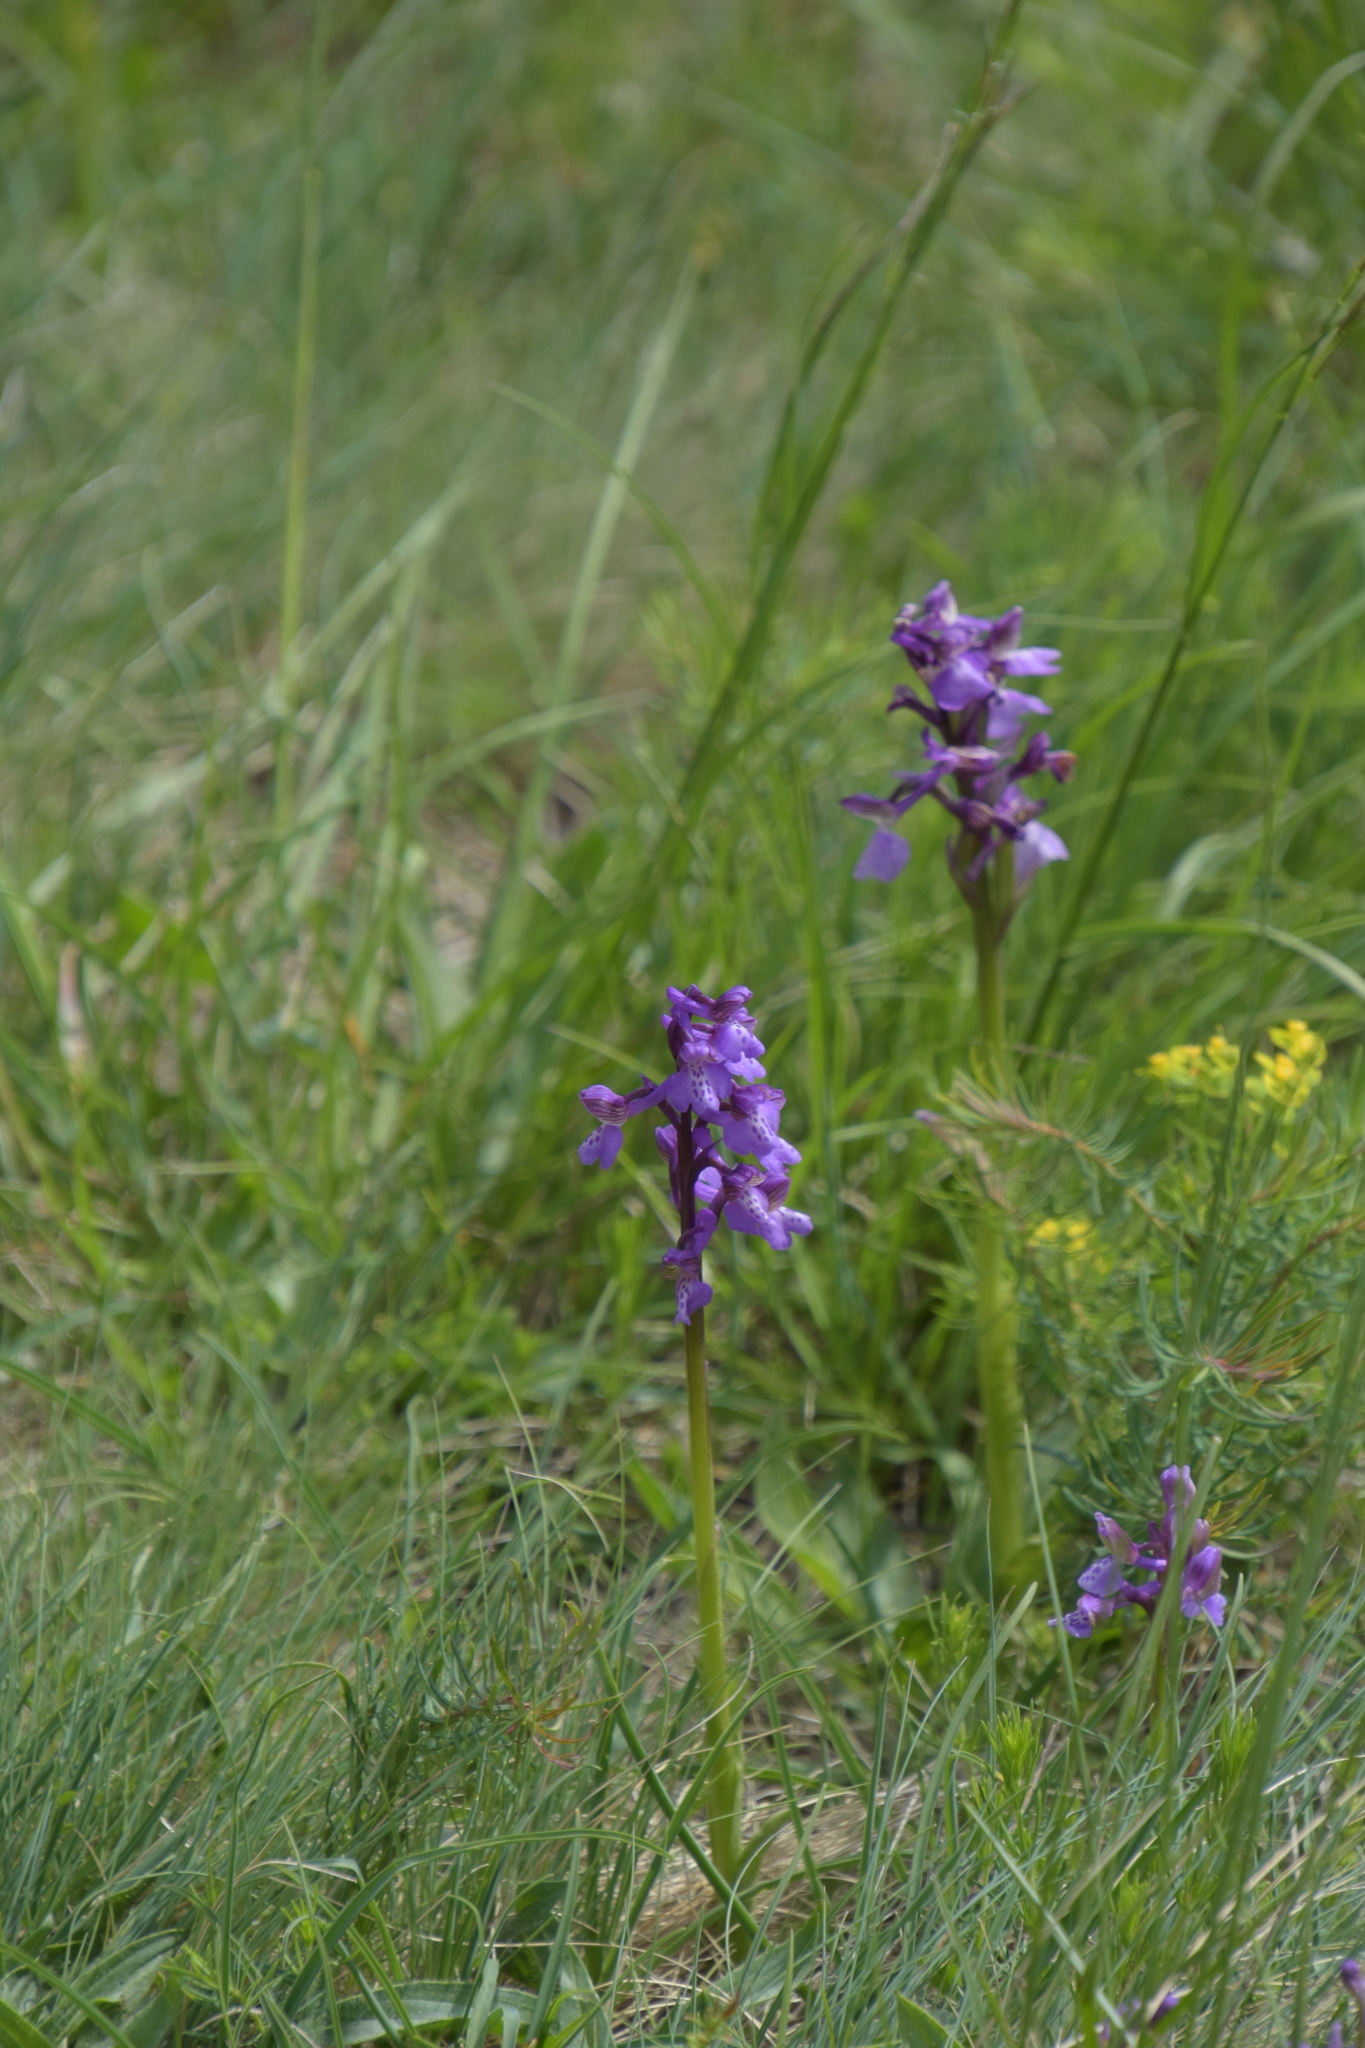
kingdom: Plantae
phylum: Tracheophyta
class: Liliopsida
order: Asparagales
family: Orchidaceae
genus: Anacamptis
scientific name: Anacamptis morio
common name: Green-winged orchid
